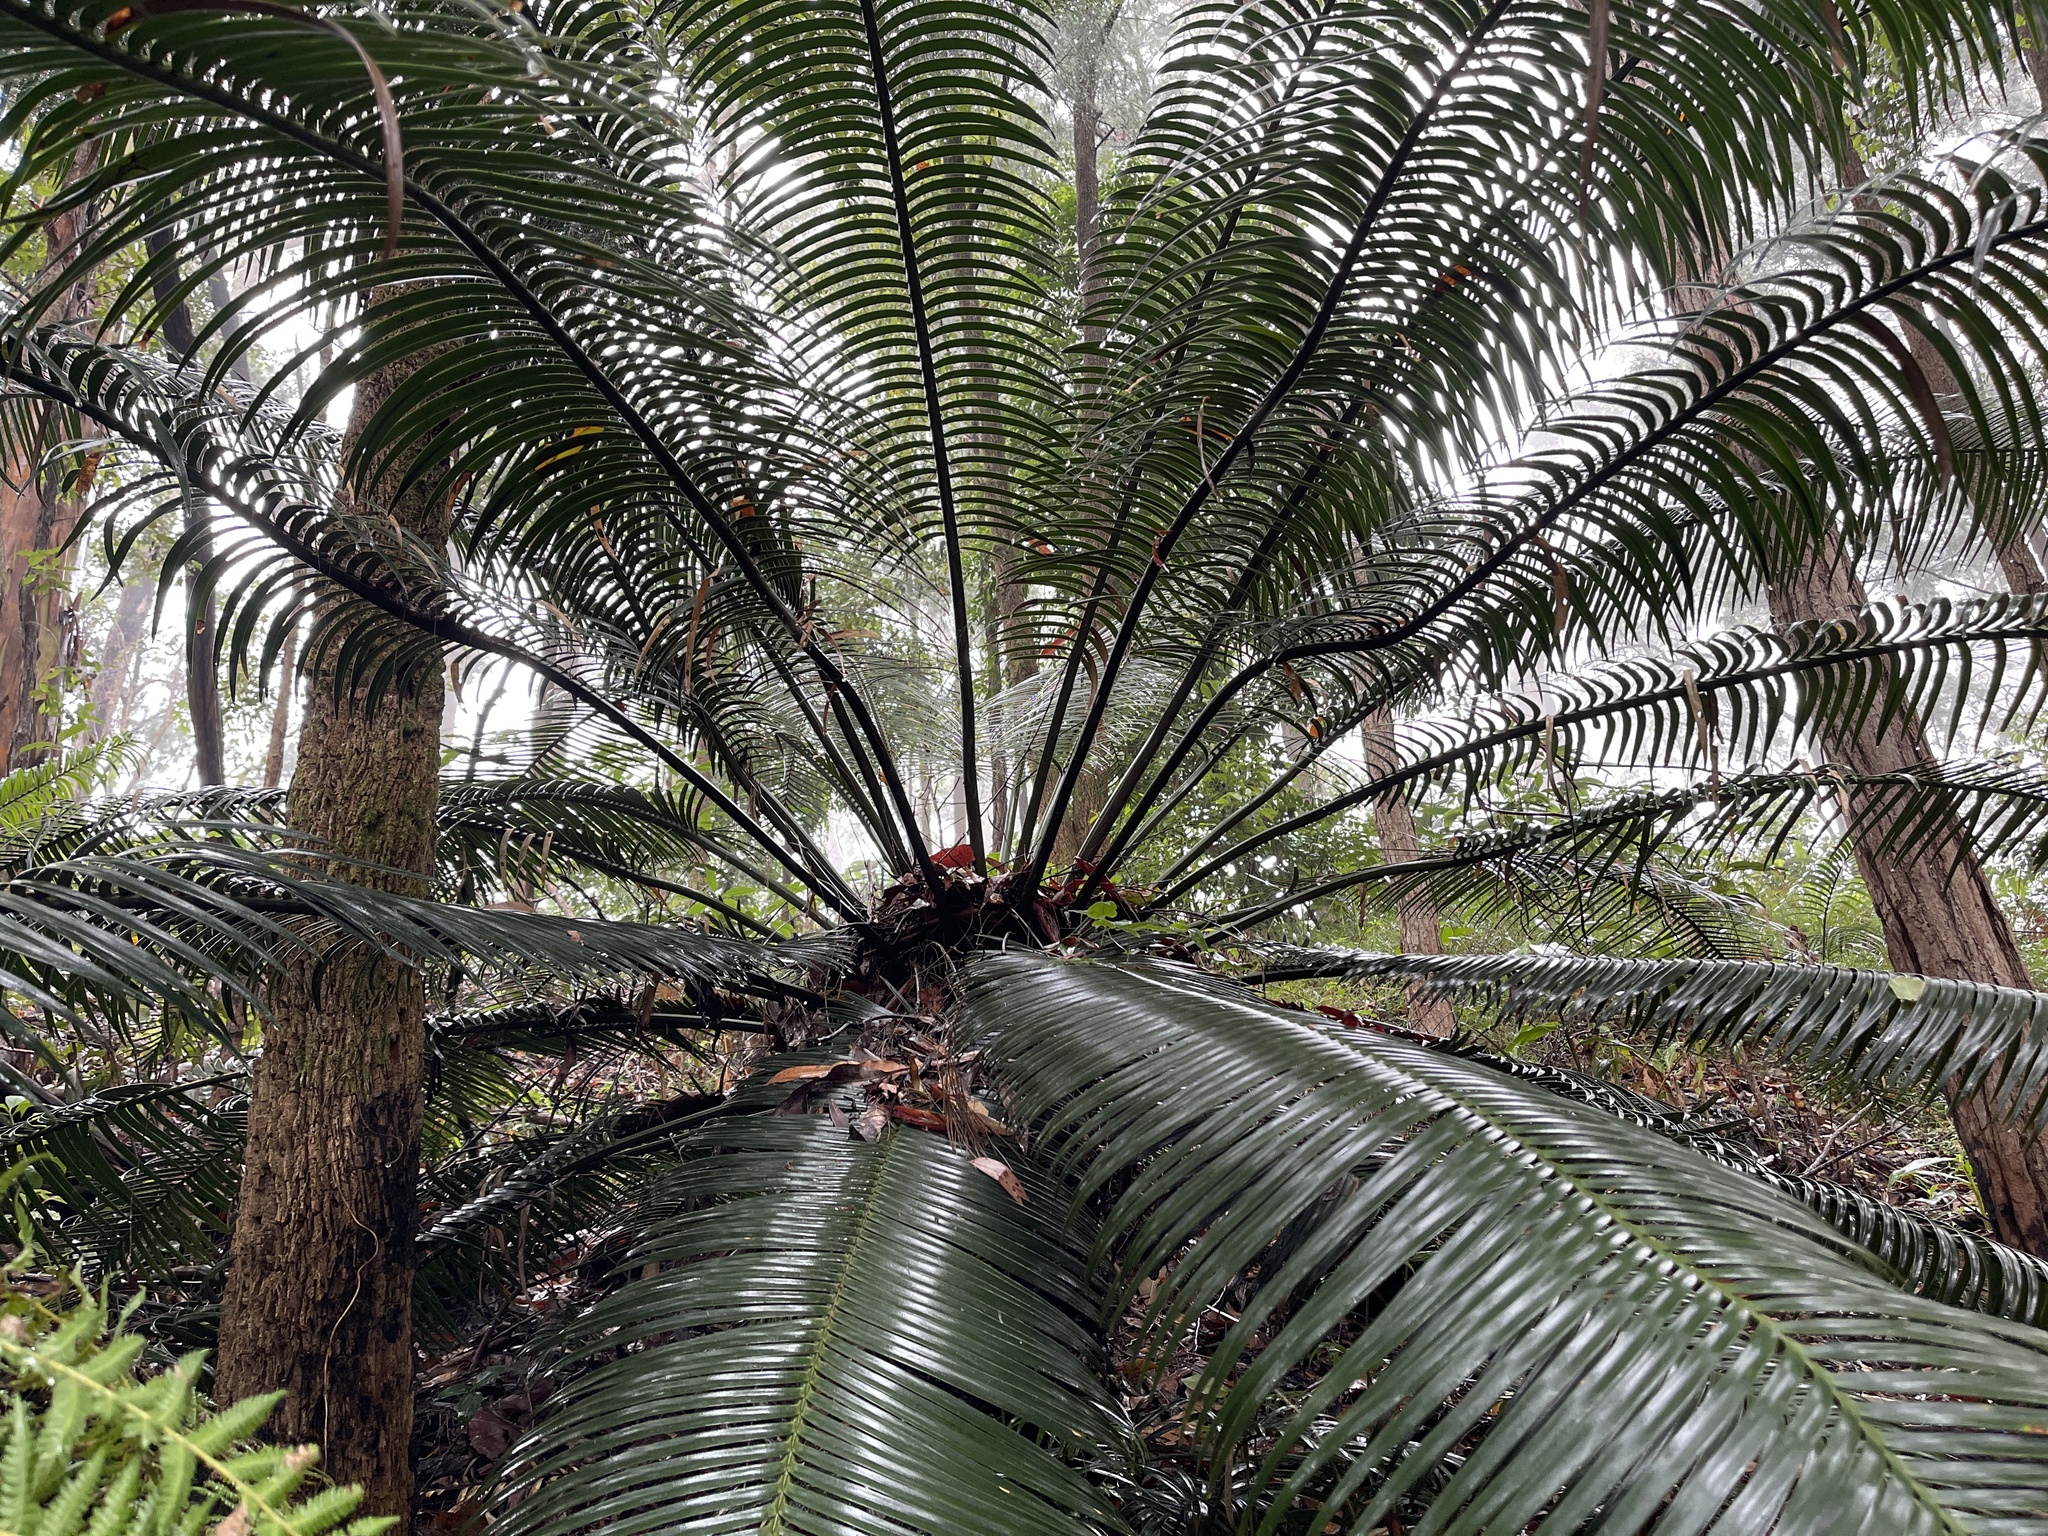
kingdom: Plantae
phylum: Tracheophyta
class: Cycadopsida
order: Cycadales
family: Zamiaceae
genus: Lepidozamia
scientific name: Lepidozamia peroffskyana
